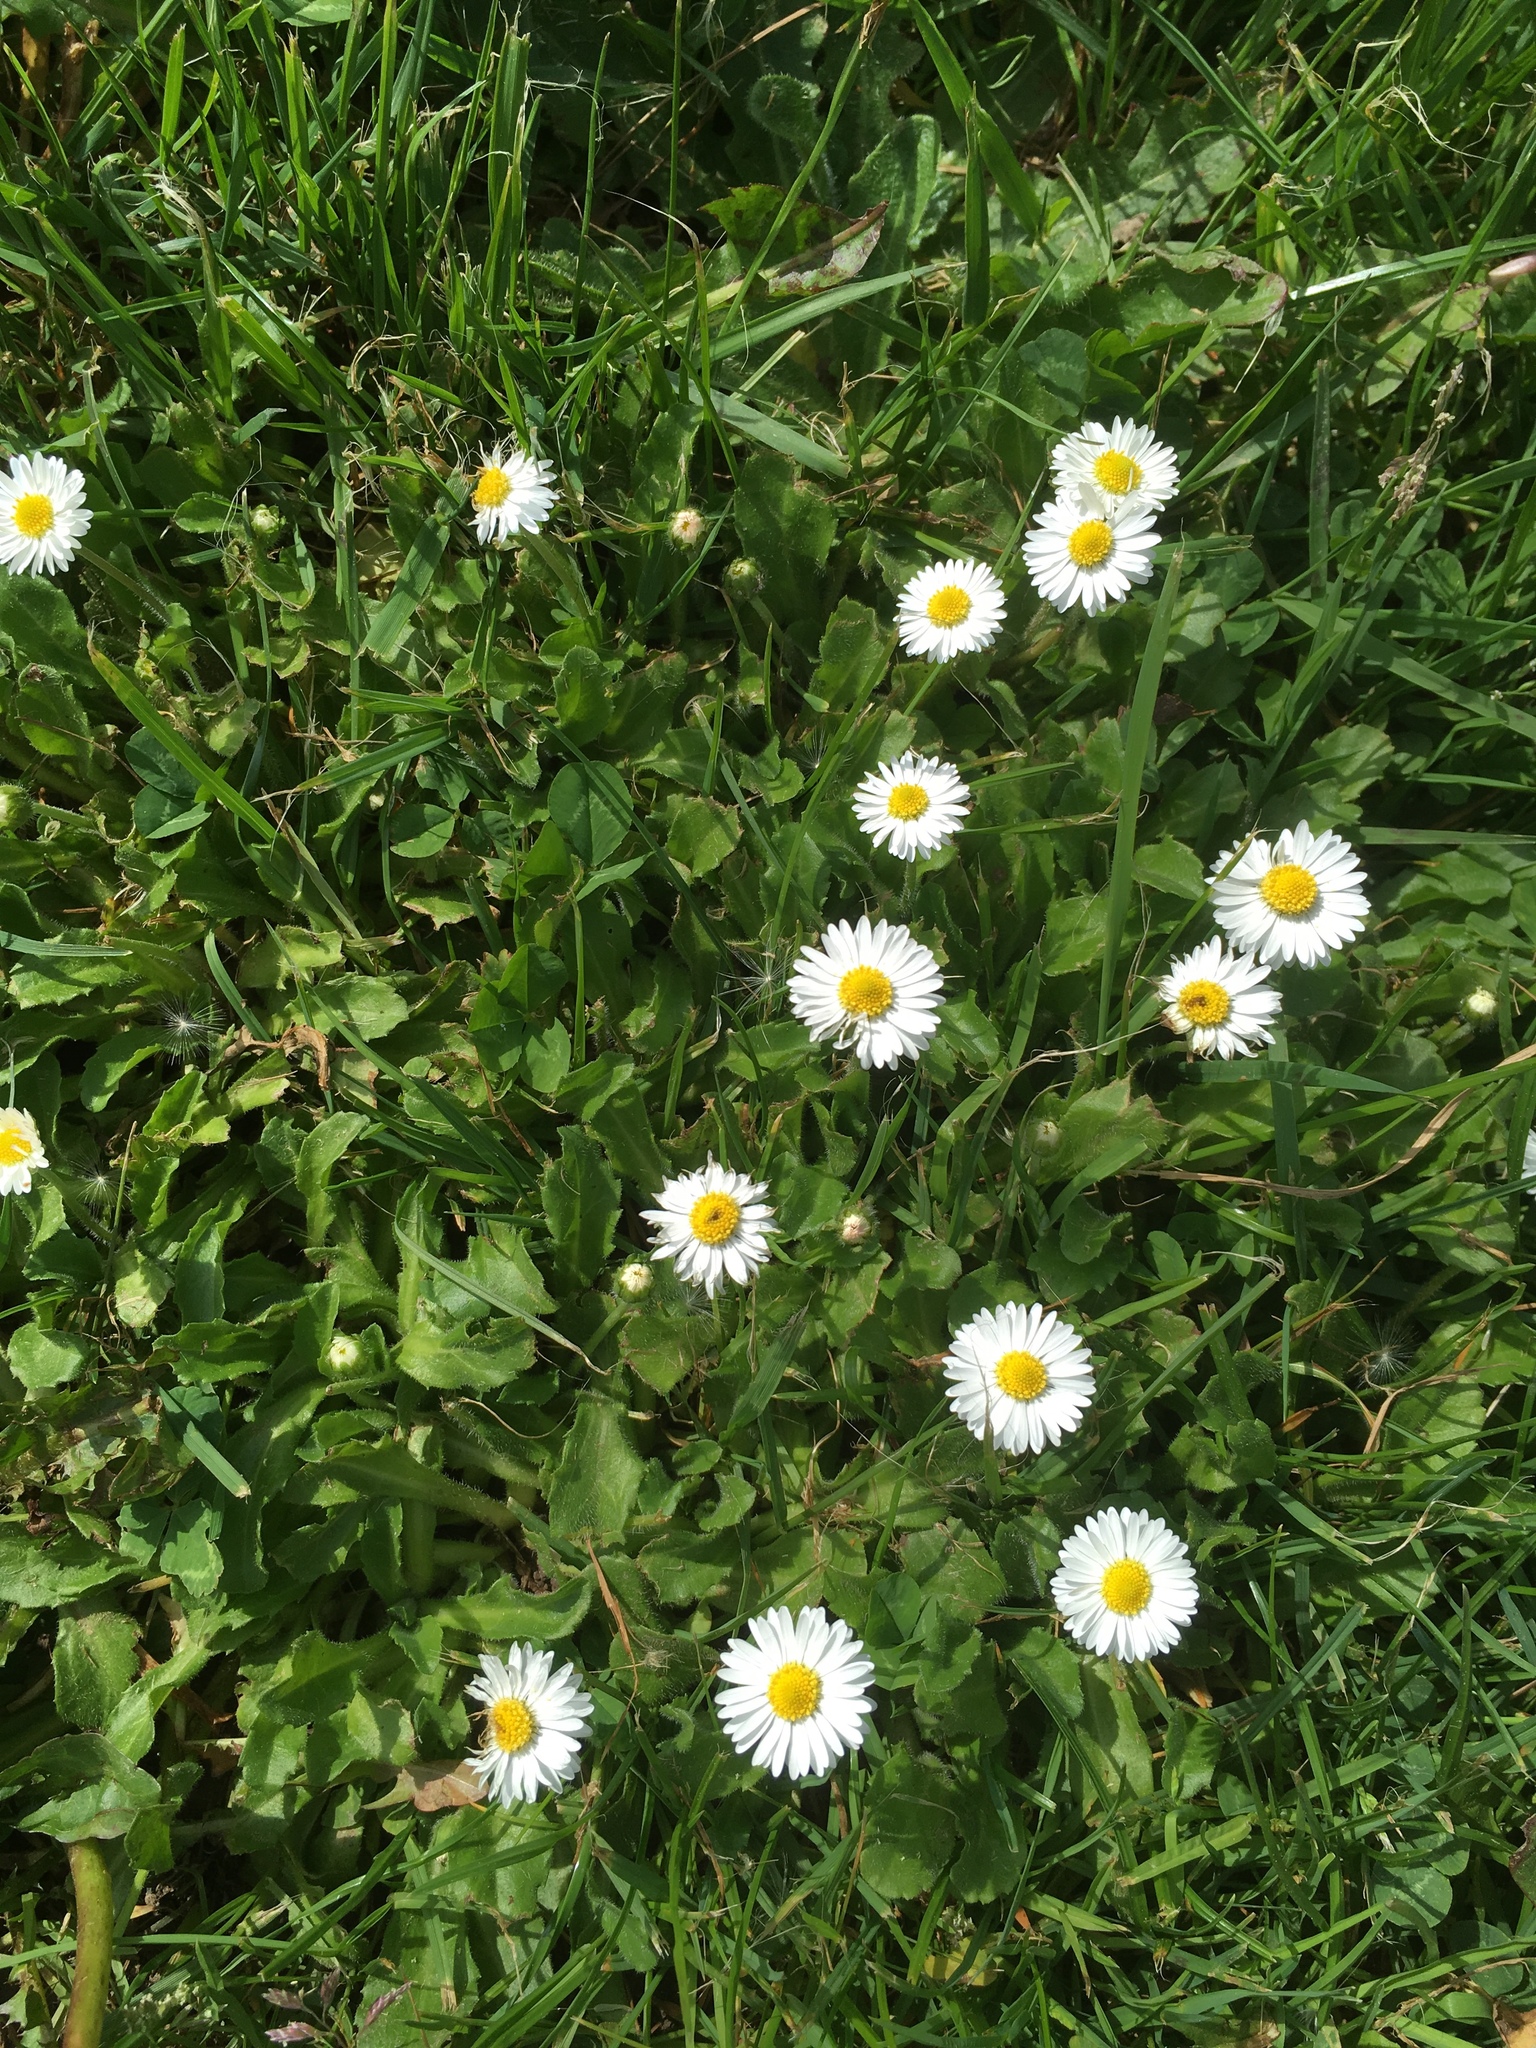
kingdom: Plantae
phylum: Tracheophyta
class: Magnoliopsida
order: Asterales
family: Asteraceae
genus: Bellis
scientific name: Bellis perennis
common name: Lawndaisy
